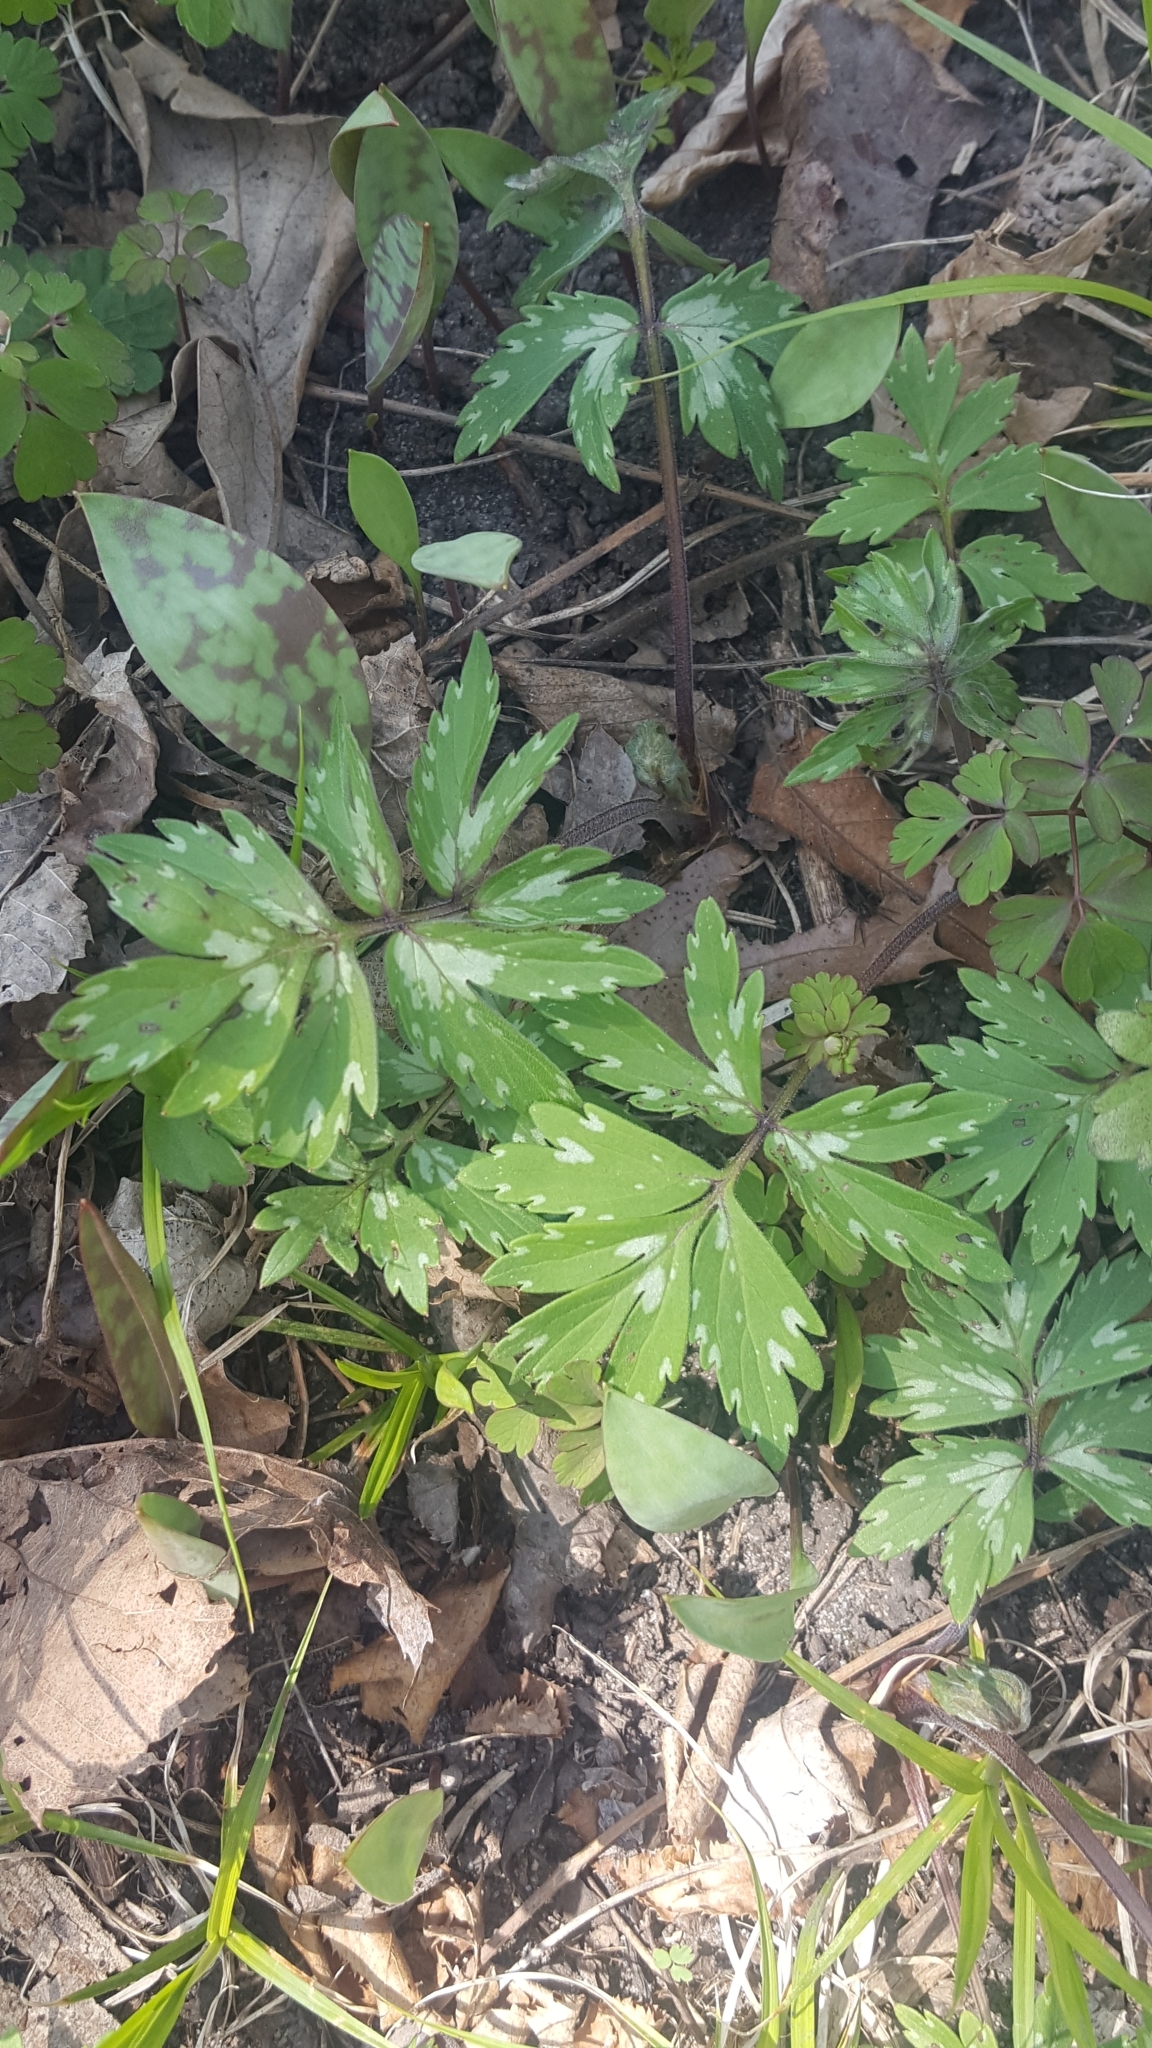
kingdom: Plantae
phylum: Tracheophyta
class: Magnoliopsida
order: Boraginales
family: Hydrophyllaceae
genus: Hydrophyllum
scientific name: Hydrophyllum virginianum
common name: Virginia waterleaf
